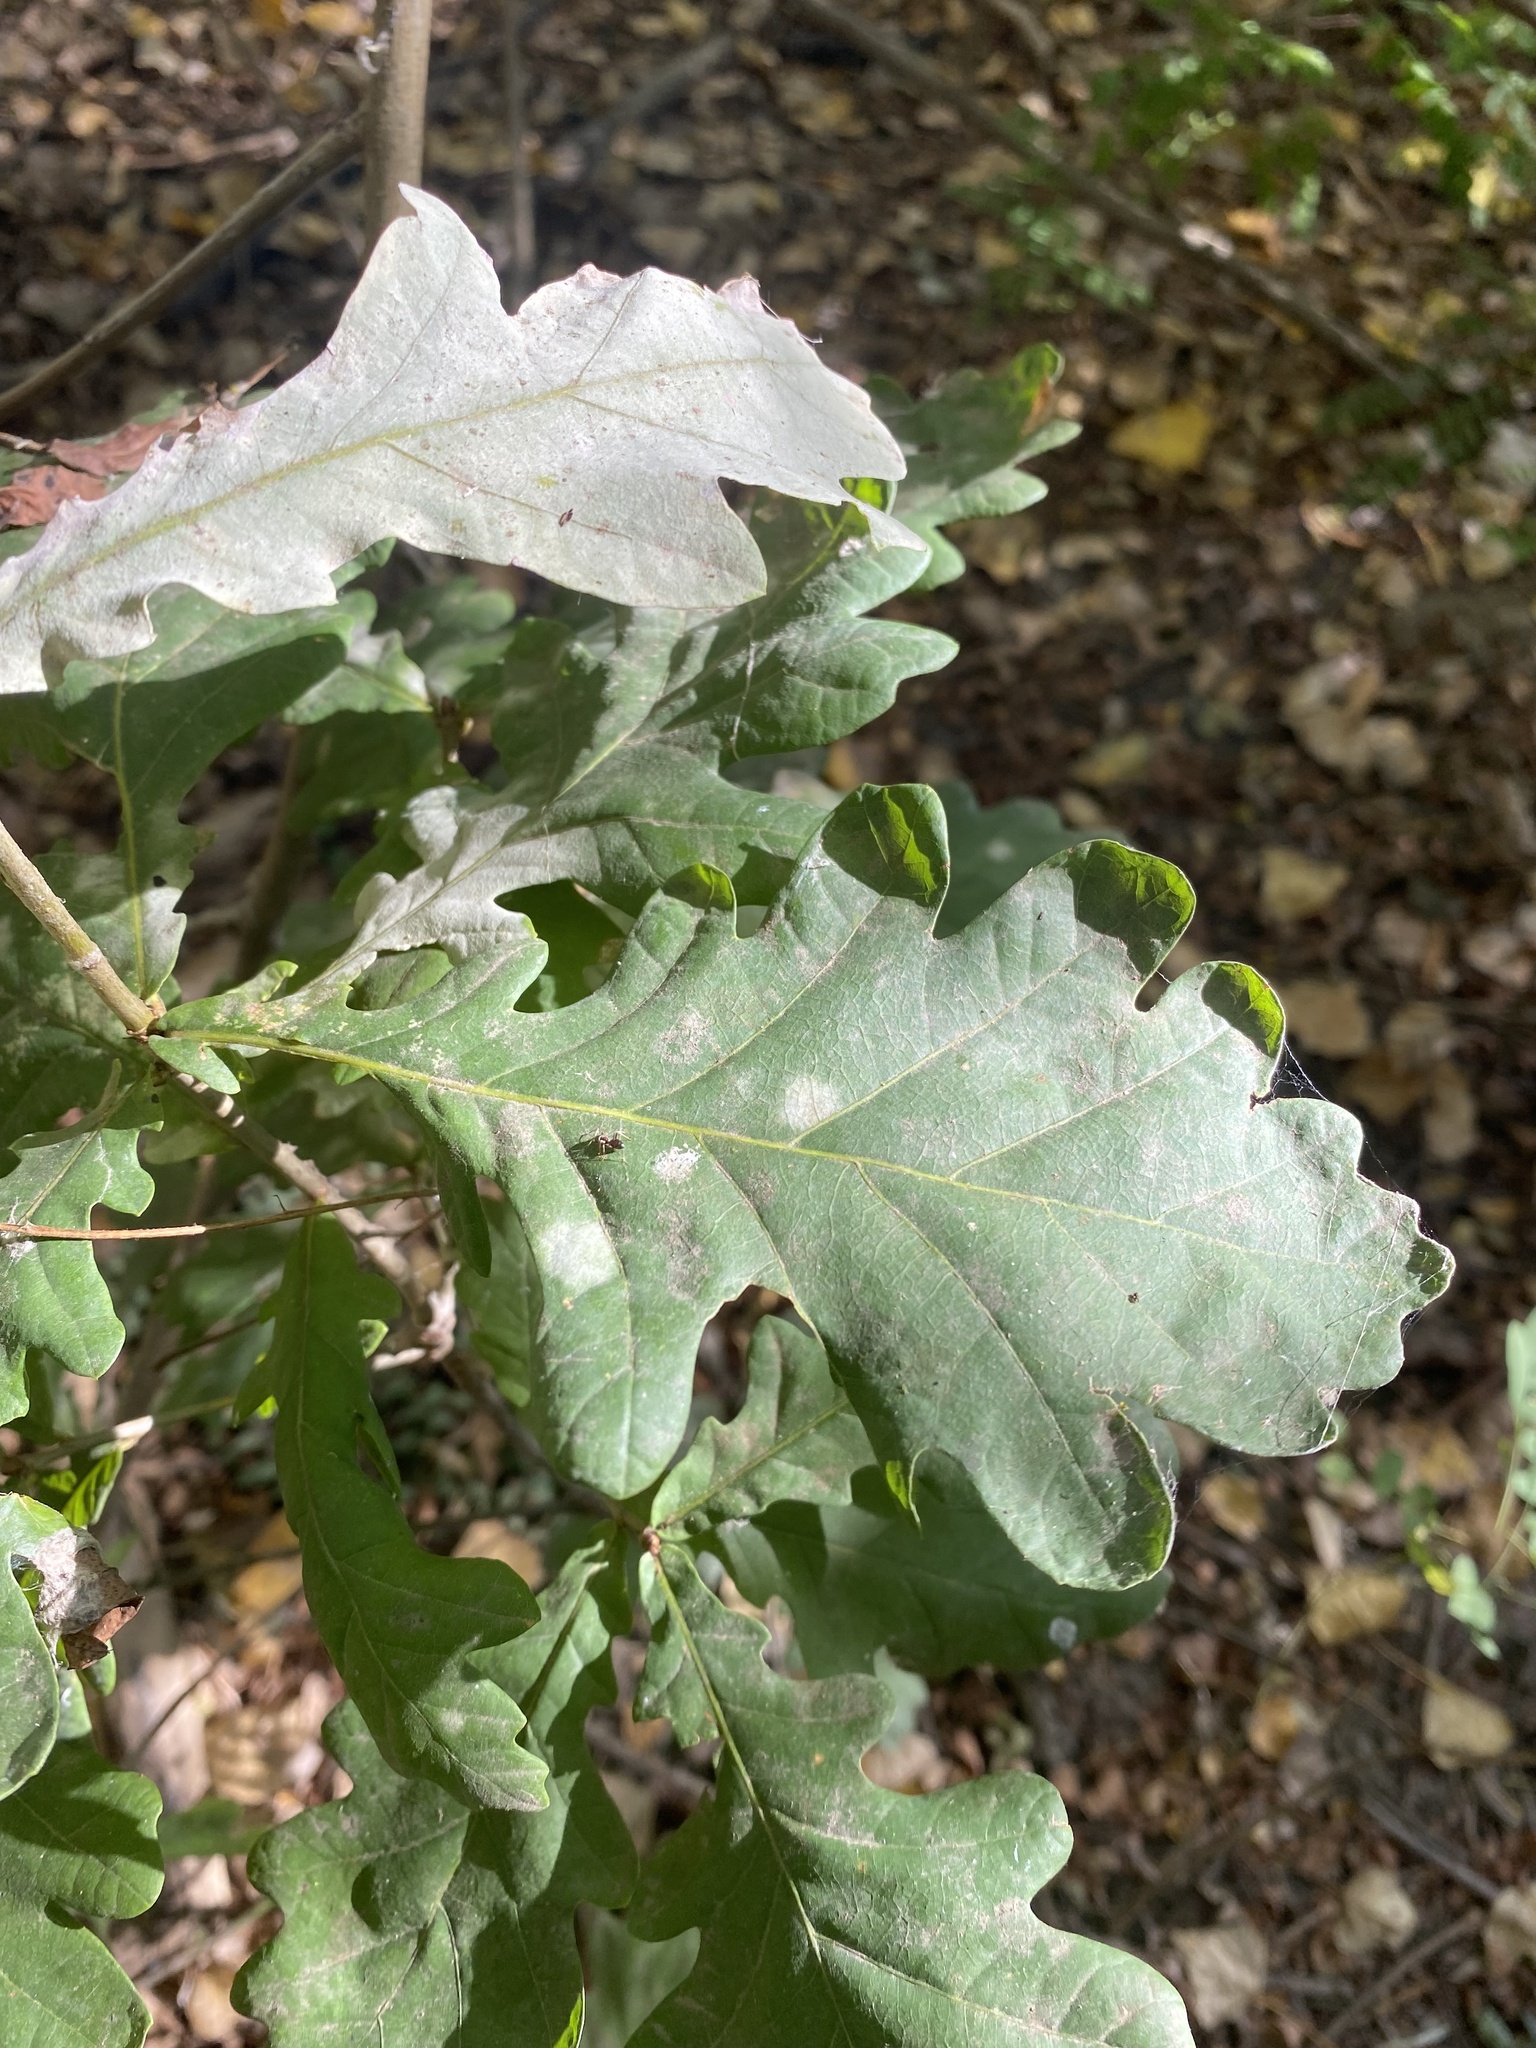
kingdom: Plantae
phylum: Tracheophyta
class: Magnoliopsida
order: Fagales
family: Fagaceae
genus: Quercus
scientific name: Quercus robur
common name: Pedunculate oak
